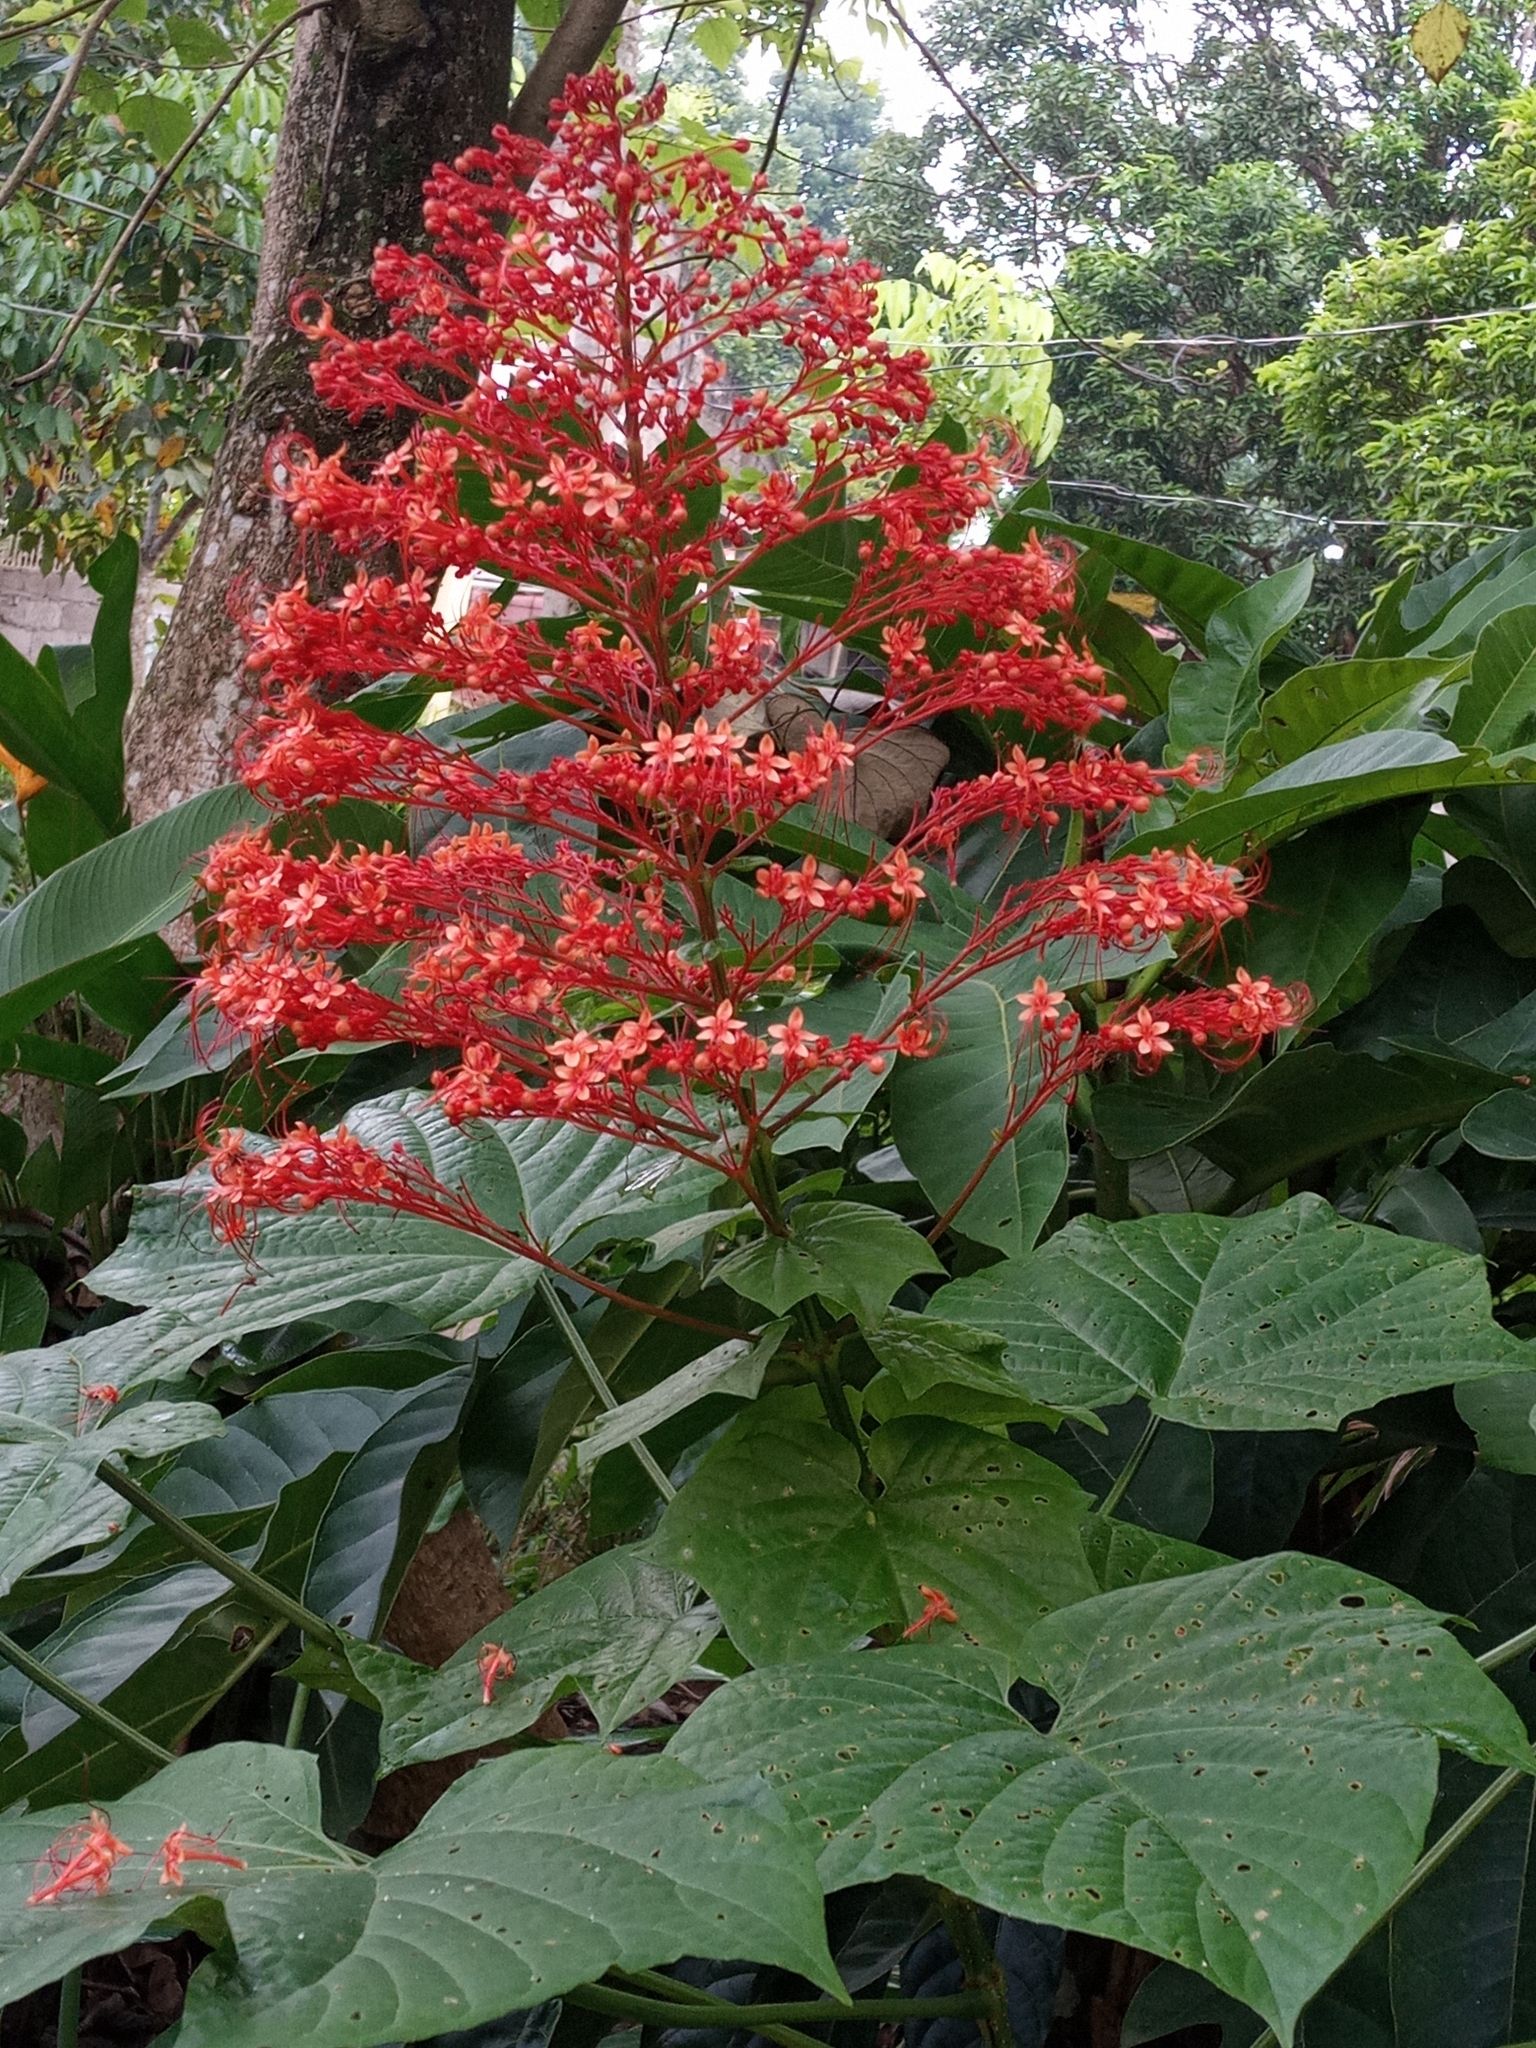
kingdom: Plantae
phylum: Tracheophyta
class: Magnoliopsida
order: Lamiales
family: Lamiaceae
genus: Clerodendrum
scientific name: Clerodendrum paniculatum
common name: Pagoda-flower
